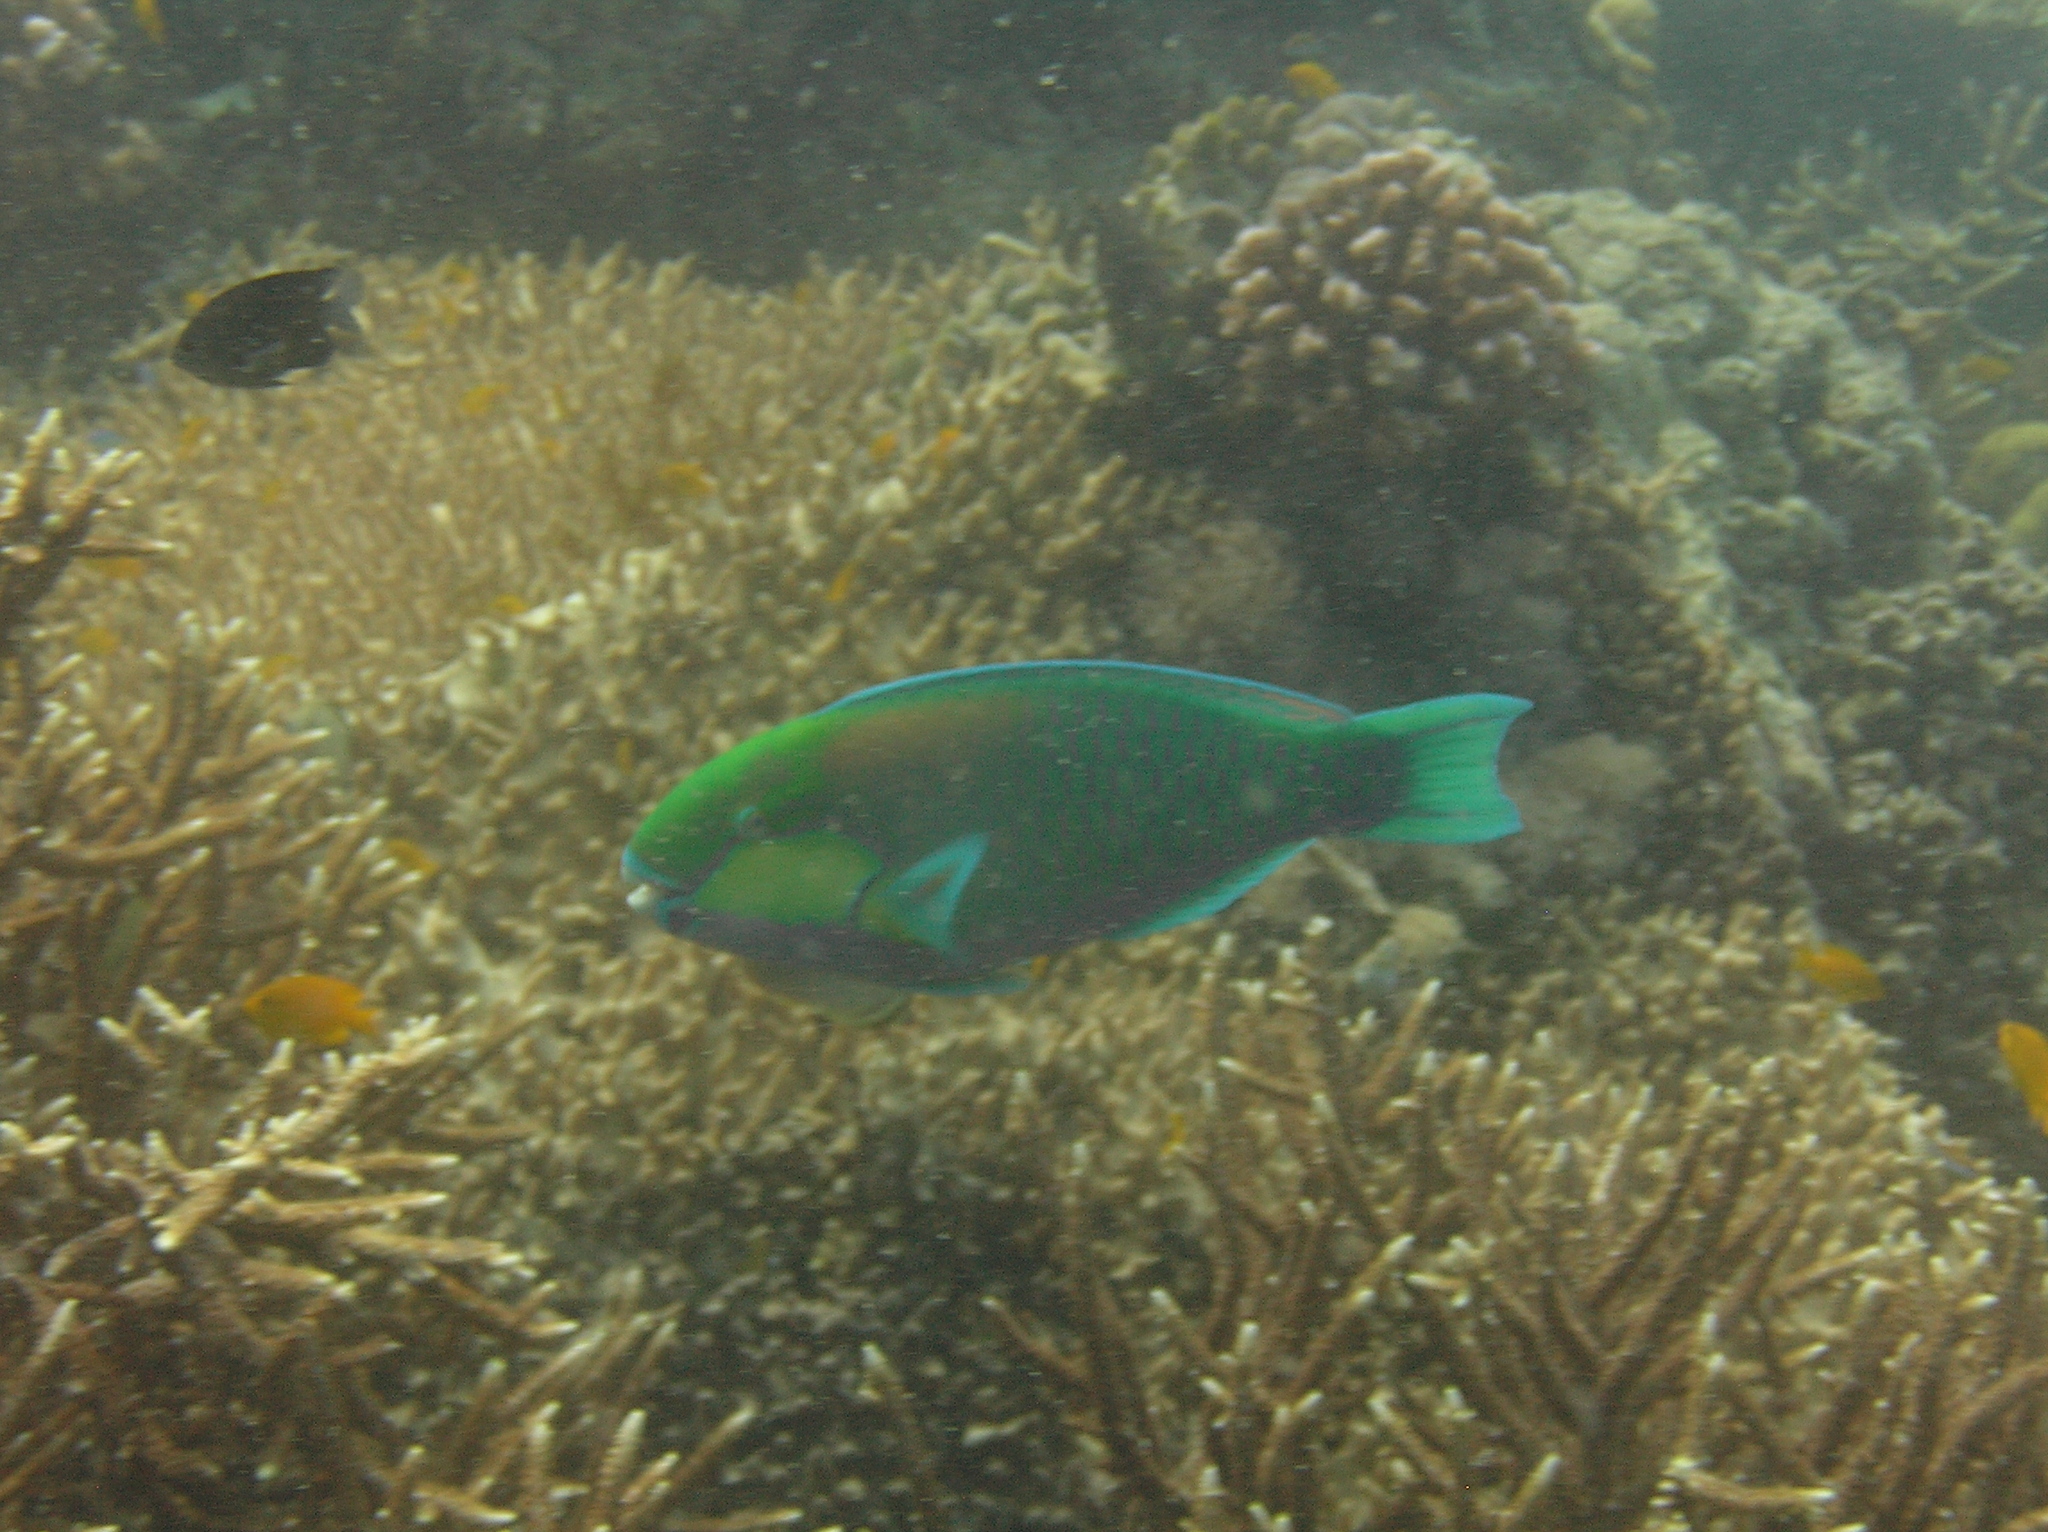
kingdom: Animalia
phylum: Chordata
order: Perciformes
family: Scaridae
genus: Chlorurus
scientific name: Chlorurus bleekeri
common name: Bleeker's parrotfish
